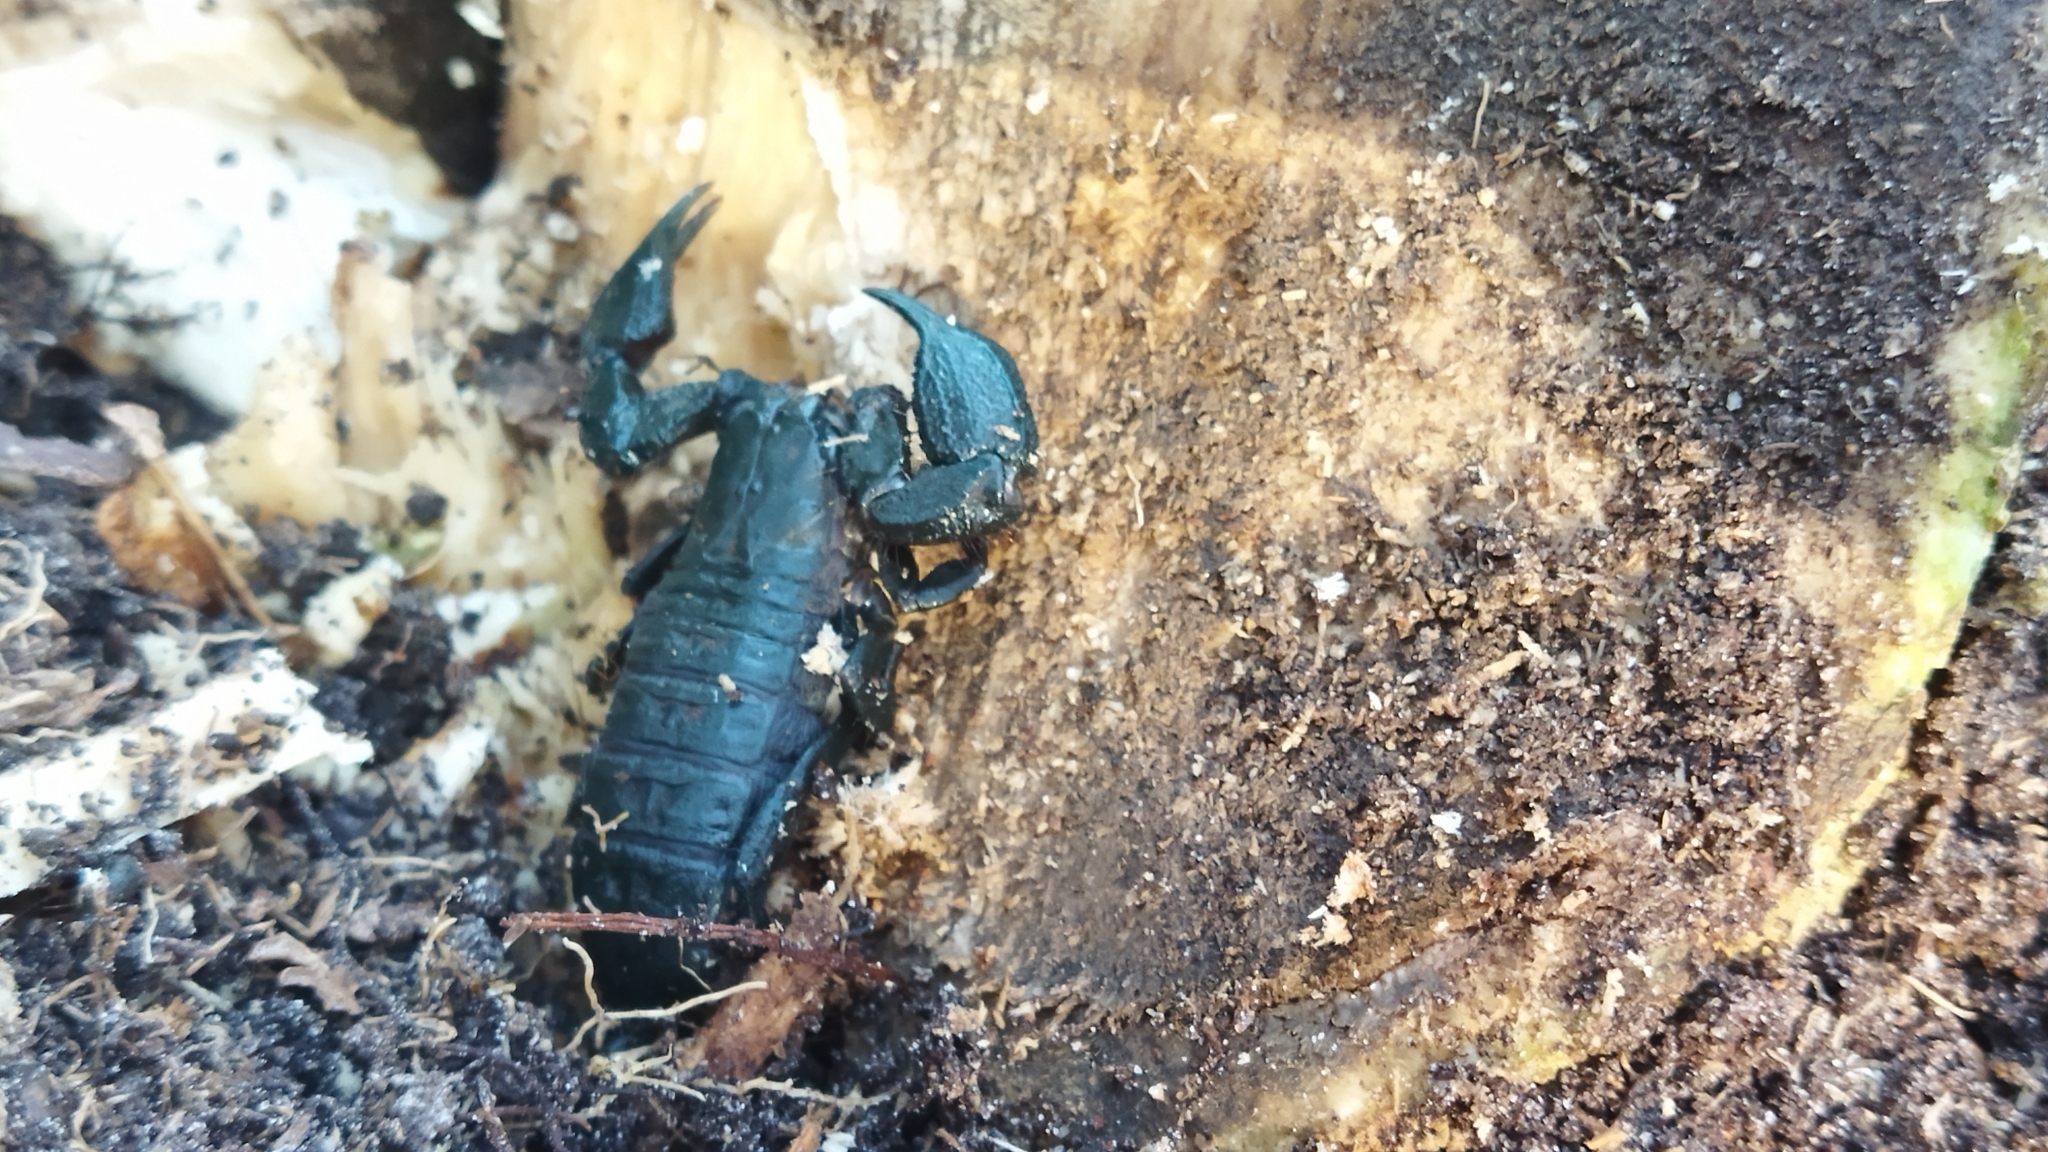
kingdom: Animalia
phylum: Arthropoda
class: Arachnida
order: Scorpiones
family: Hormuridae
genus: Opisthacanthus
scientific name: Opisthacanthus capensis
